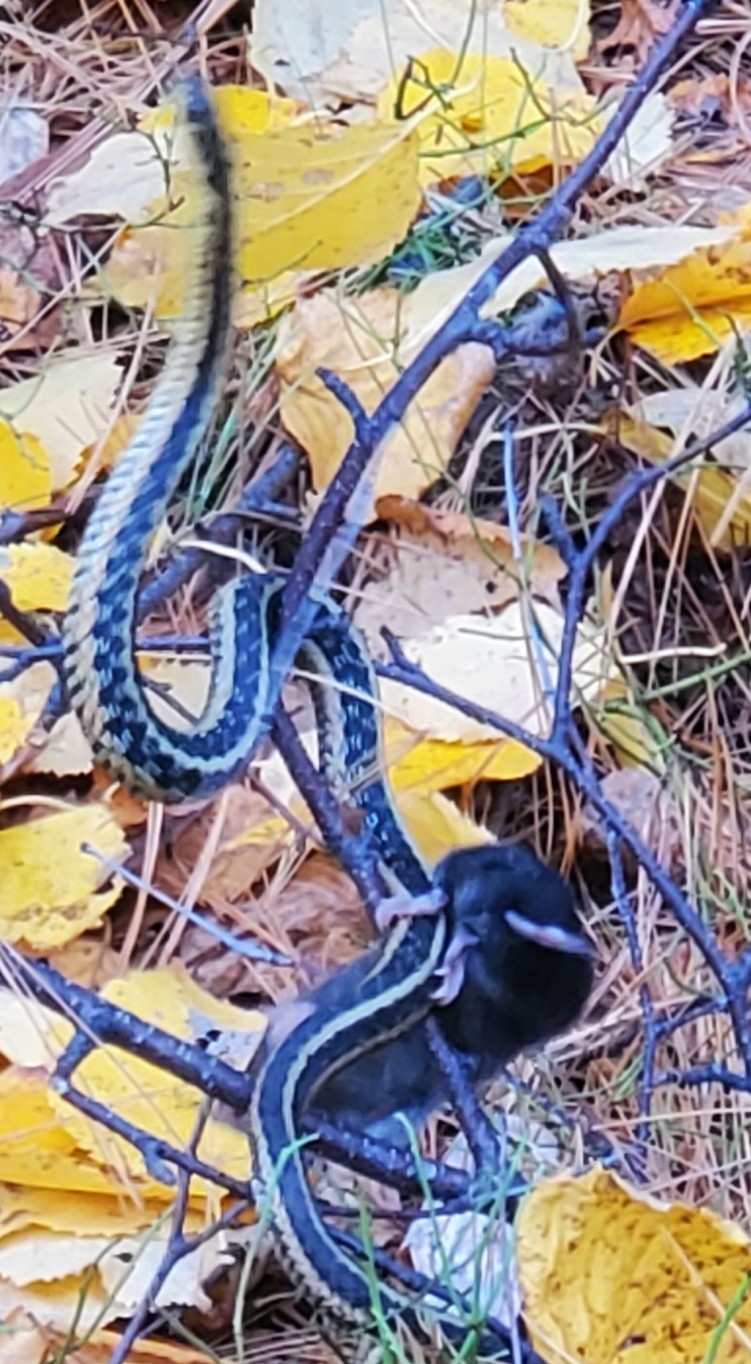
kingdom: Animalia
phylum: Chordata
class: Mammalia
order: Soricomorpha
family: Soricidae
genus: Blarina
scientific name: Blarina brevicauda
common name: Northern short-tailed shrew
